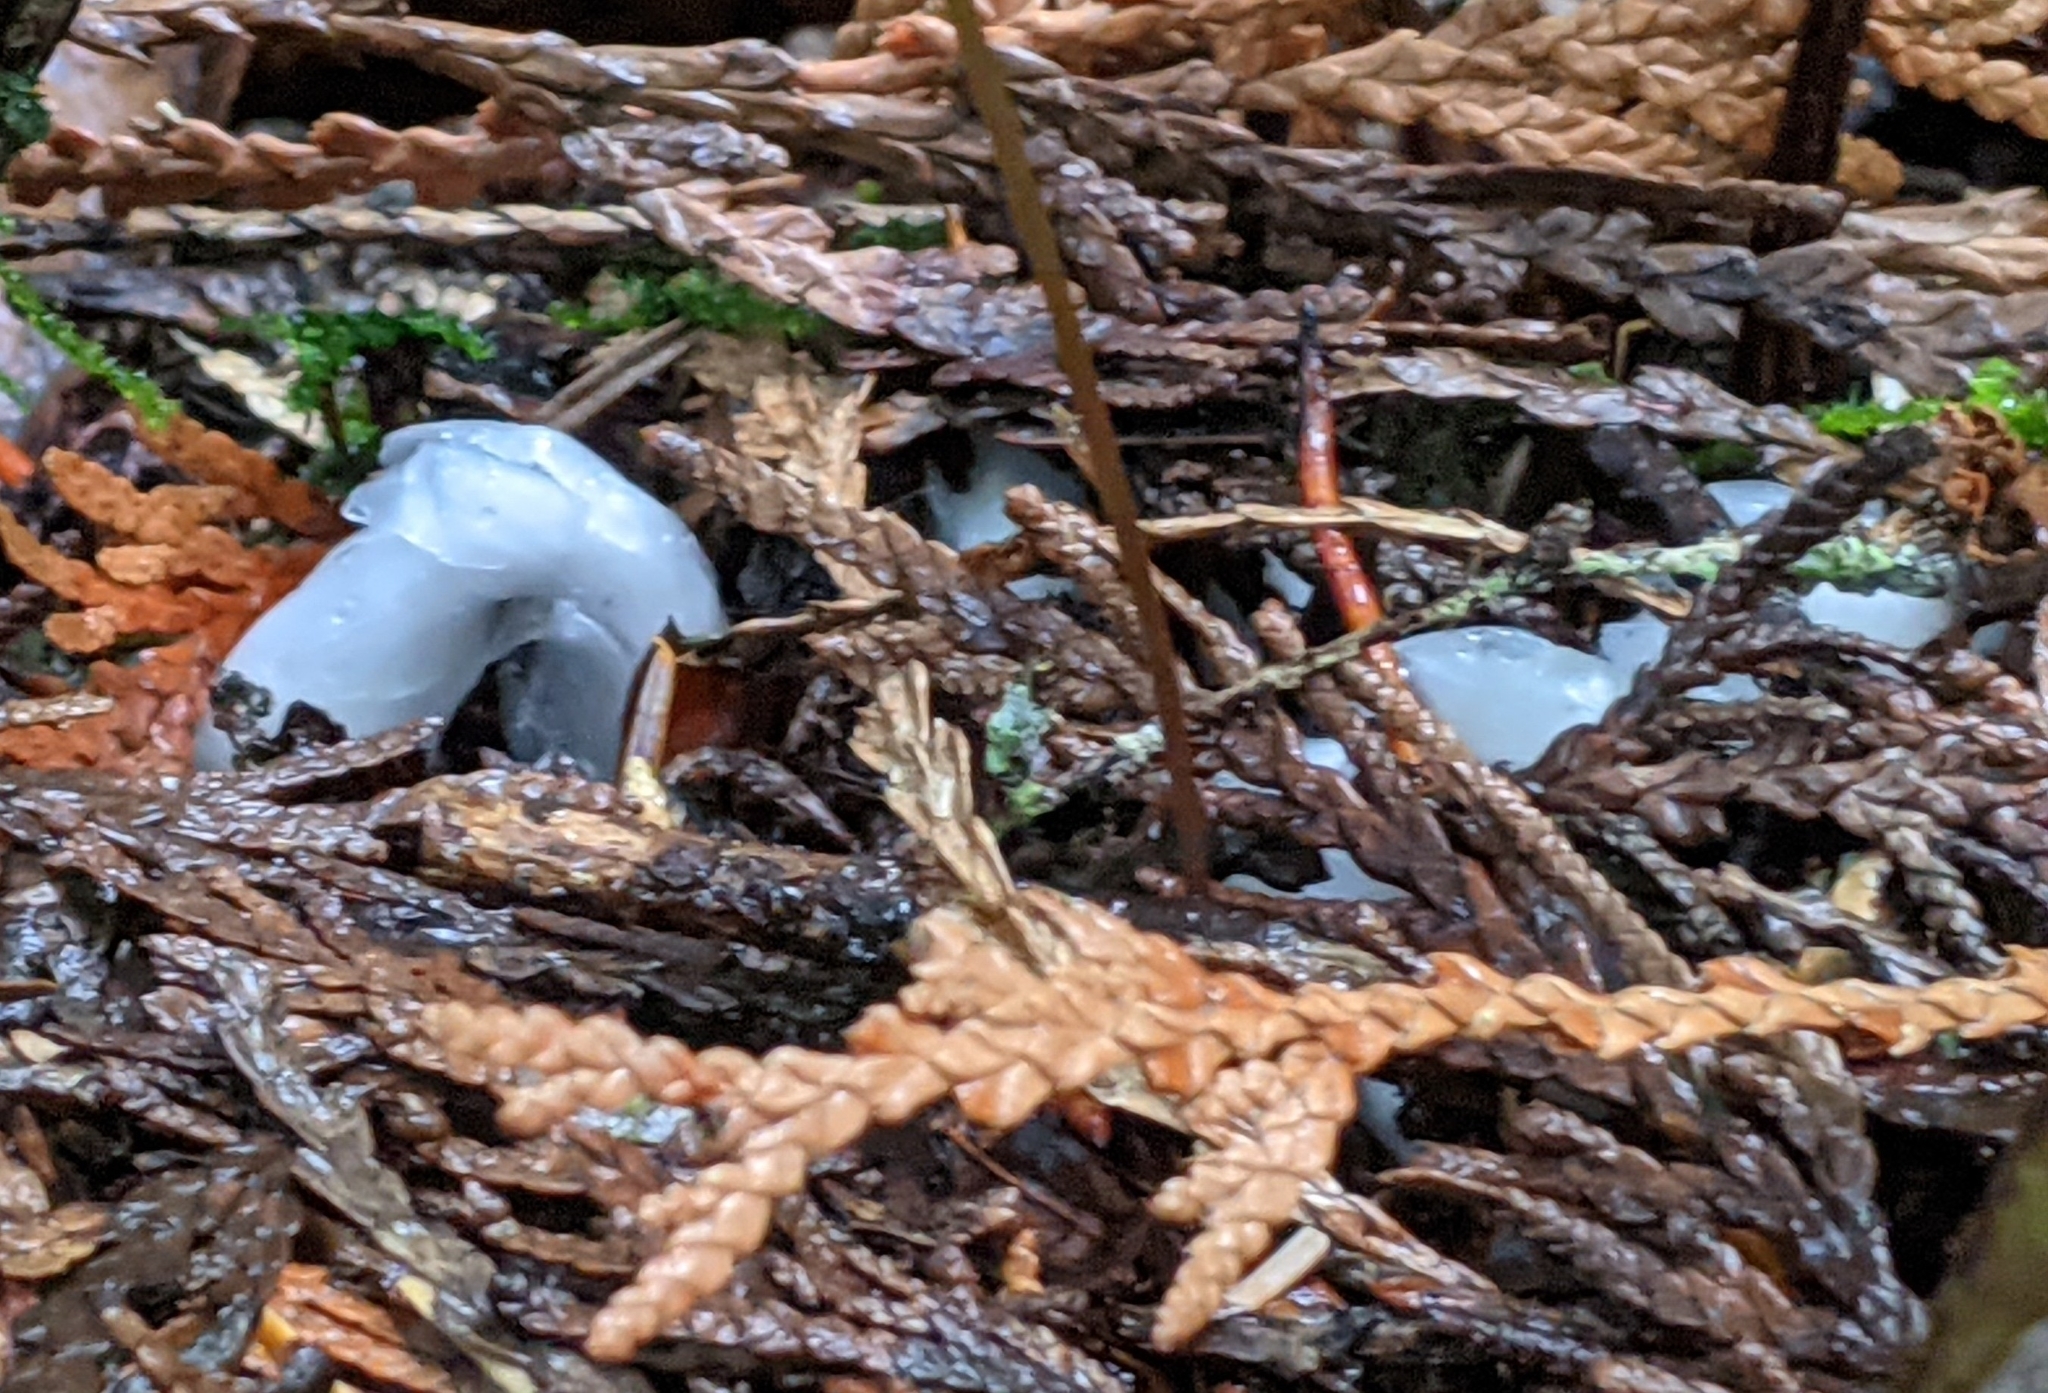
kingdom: Plantae
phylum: Tracheophyta
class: Magnoliopsida
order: Ericales
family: Ericaceae
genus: Monotropa
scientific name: Monotropa uniflora
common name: Convulsion root
